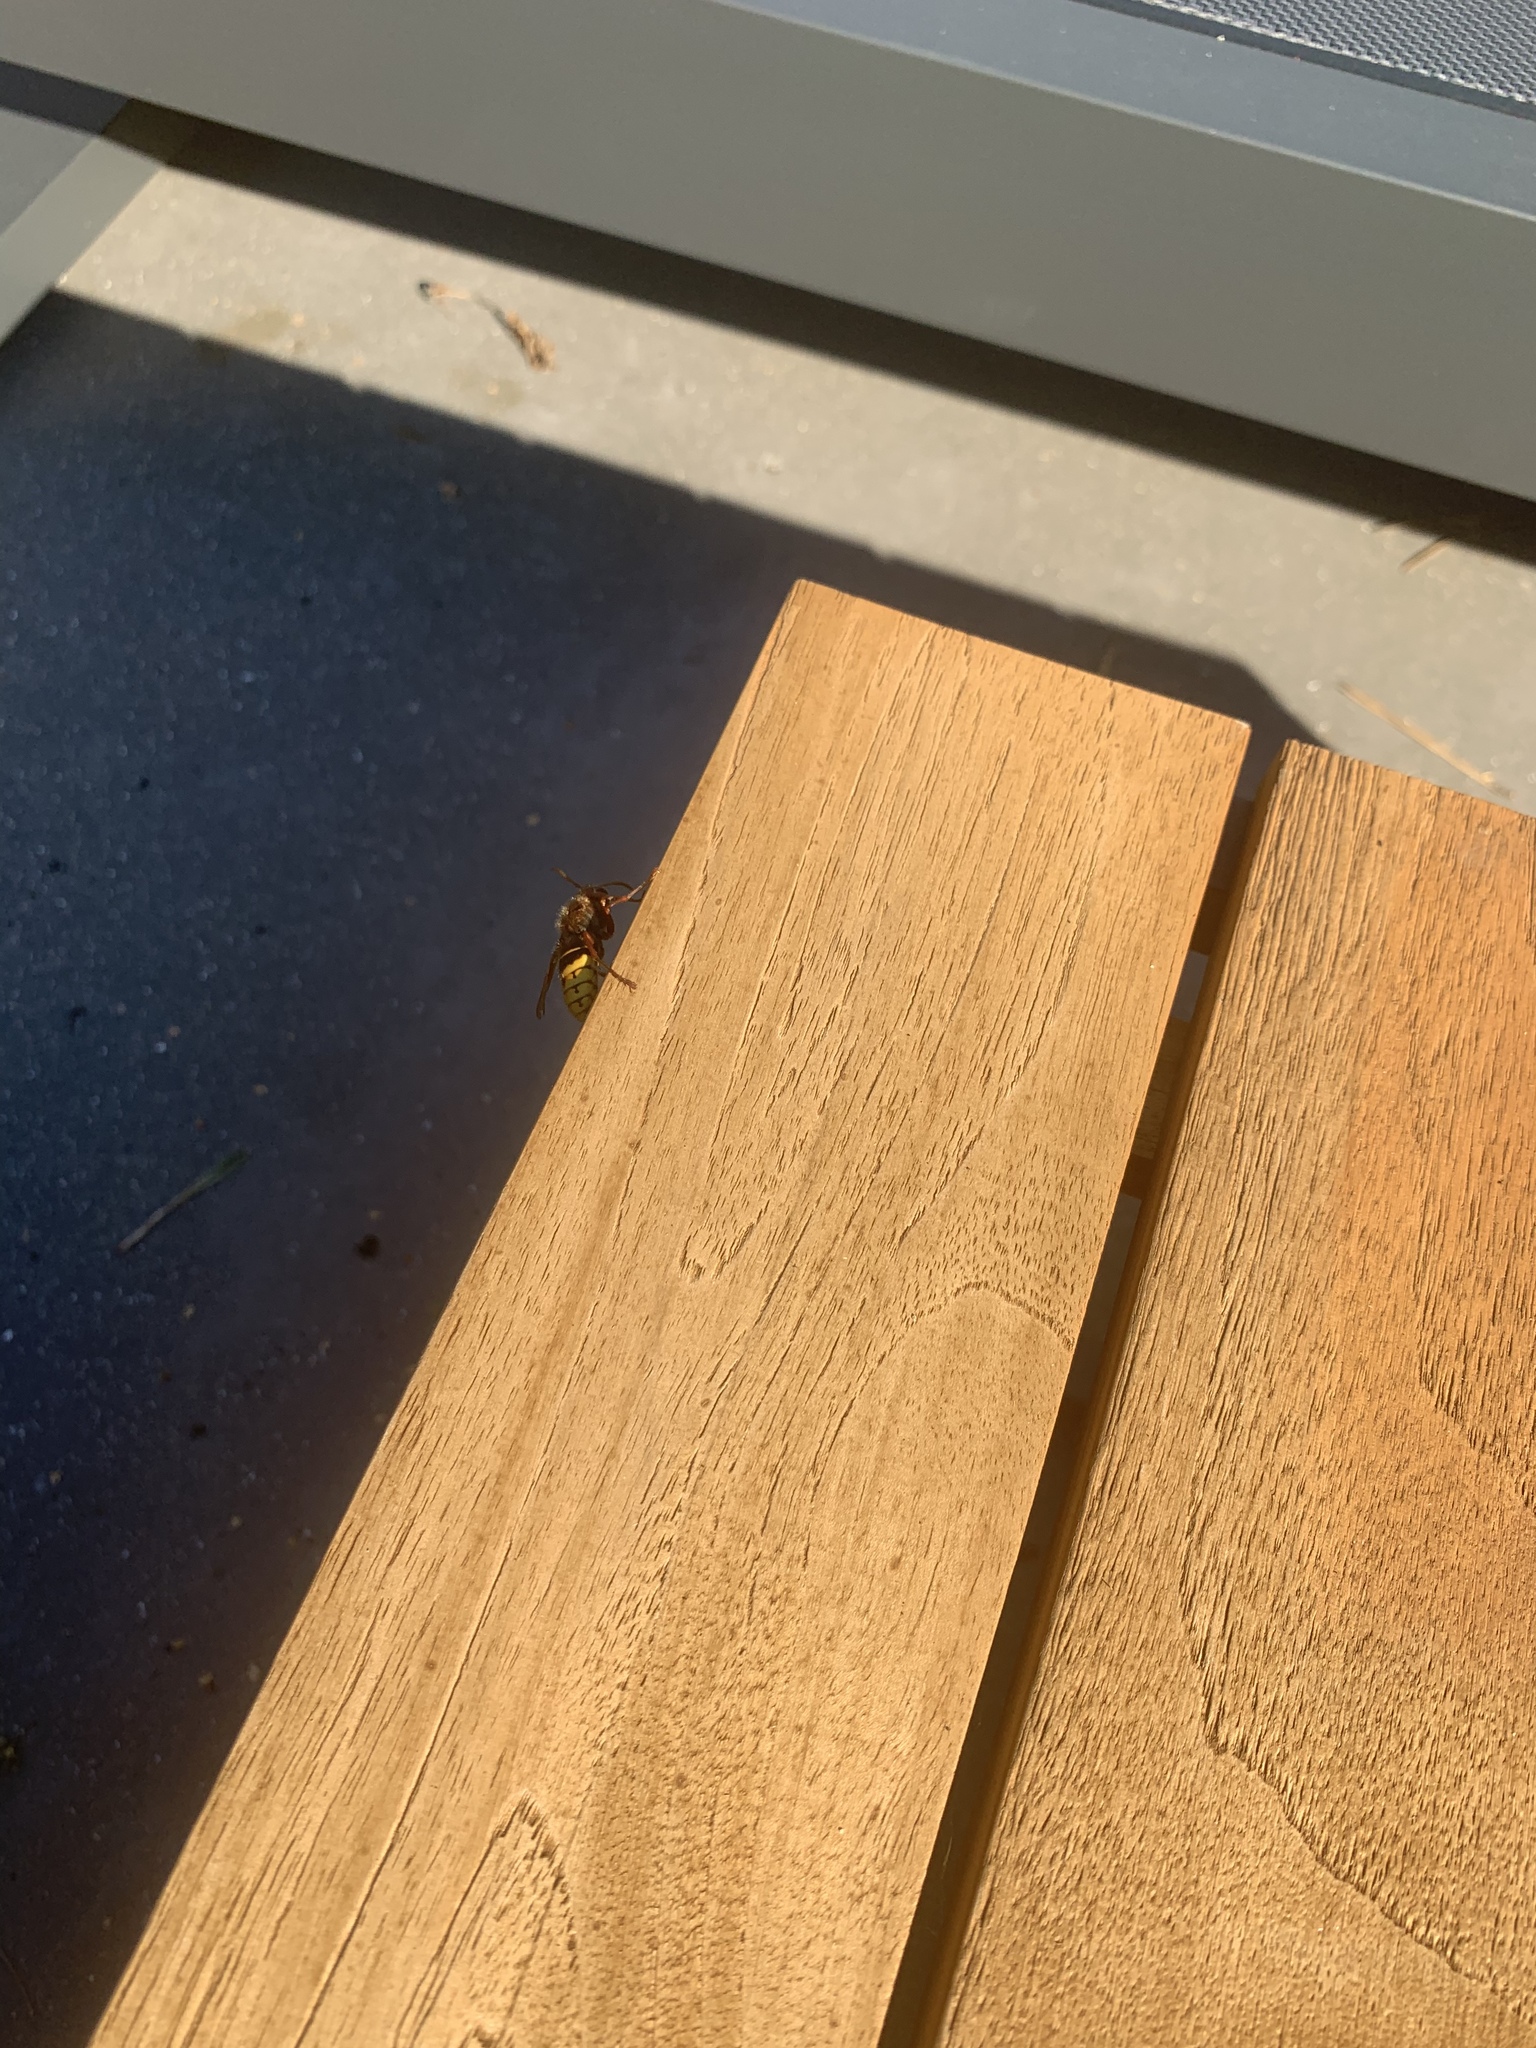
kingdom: Animalia
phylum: Arthropoda
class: Insecta
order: Hymenoptera
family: Vespidae
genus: Vespa
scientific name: Vespa crabro
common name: Hornet
